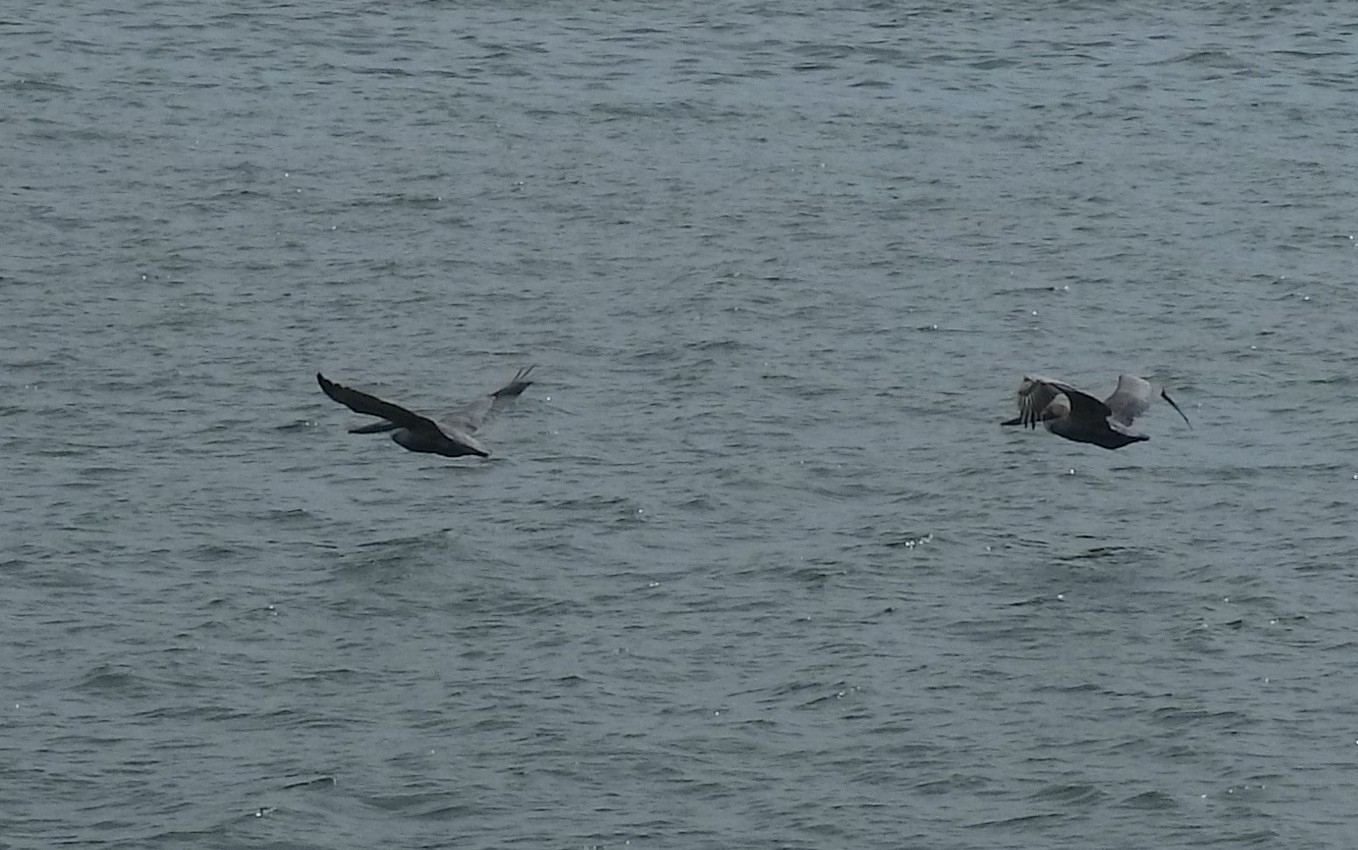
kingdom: Animalia
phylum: Chordata
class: Aves
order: Pelecaniformes
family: Pelecanidae
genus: Pelecanus
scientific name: Pelecanus occidentalis
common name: Brown pelican
